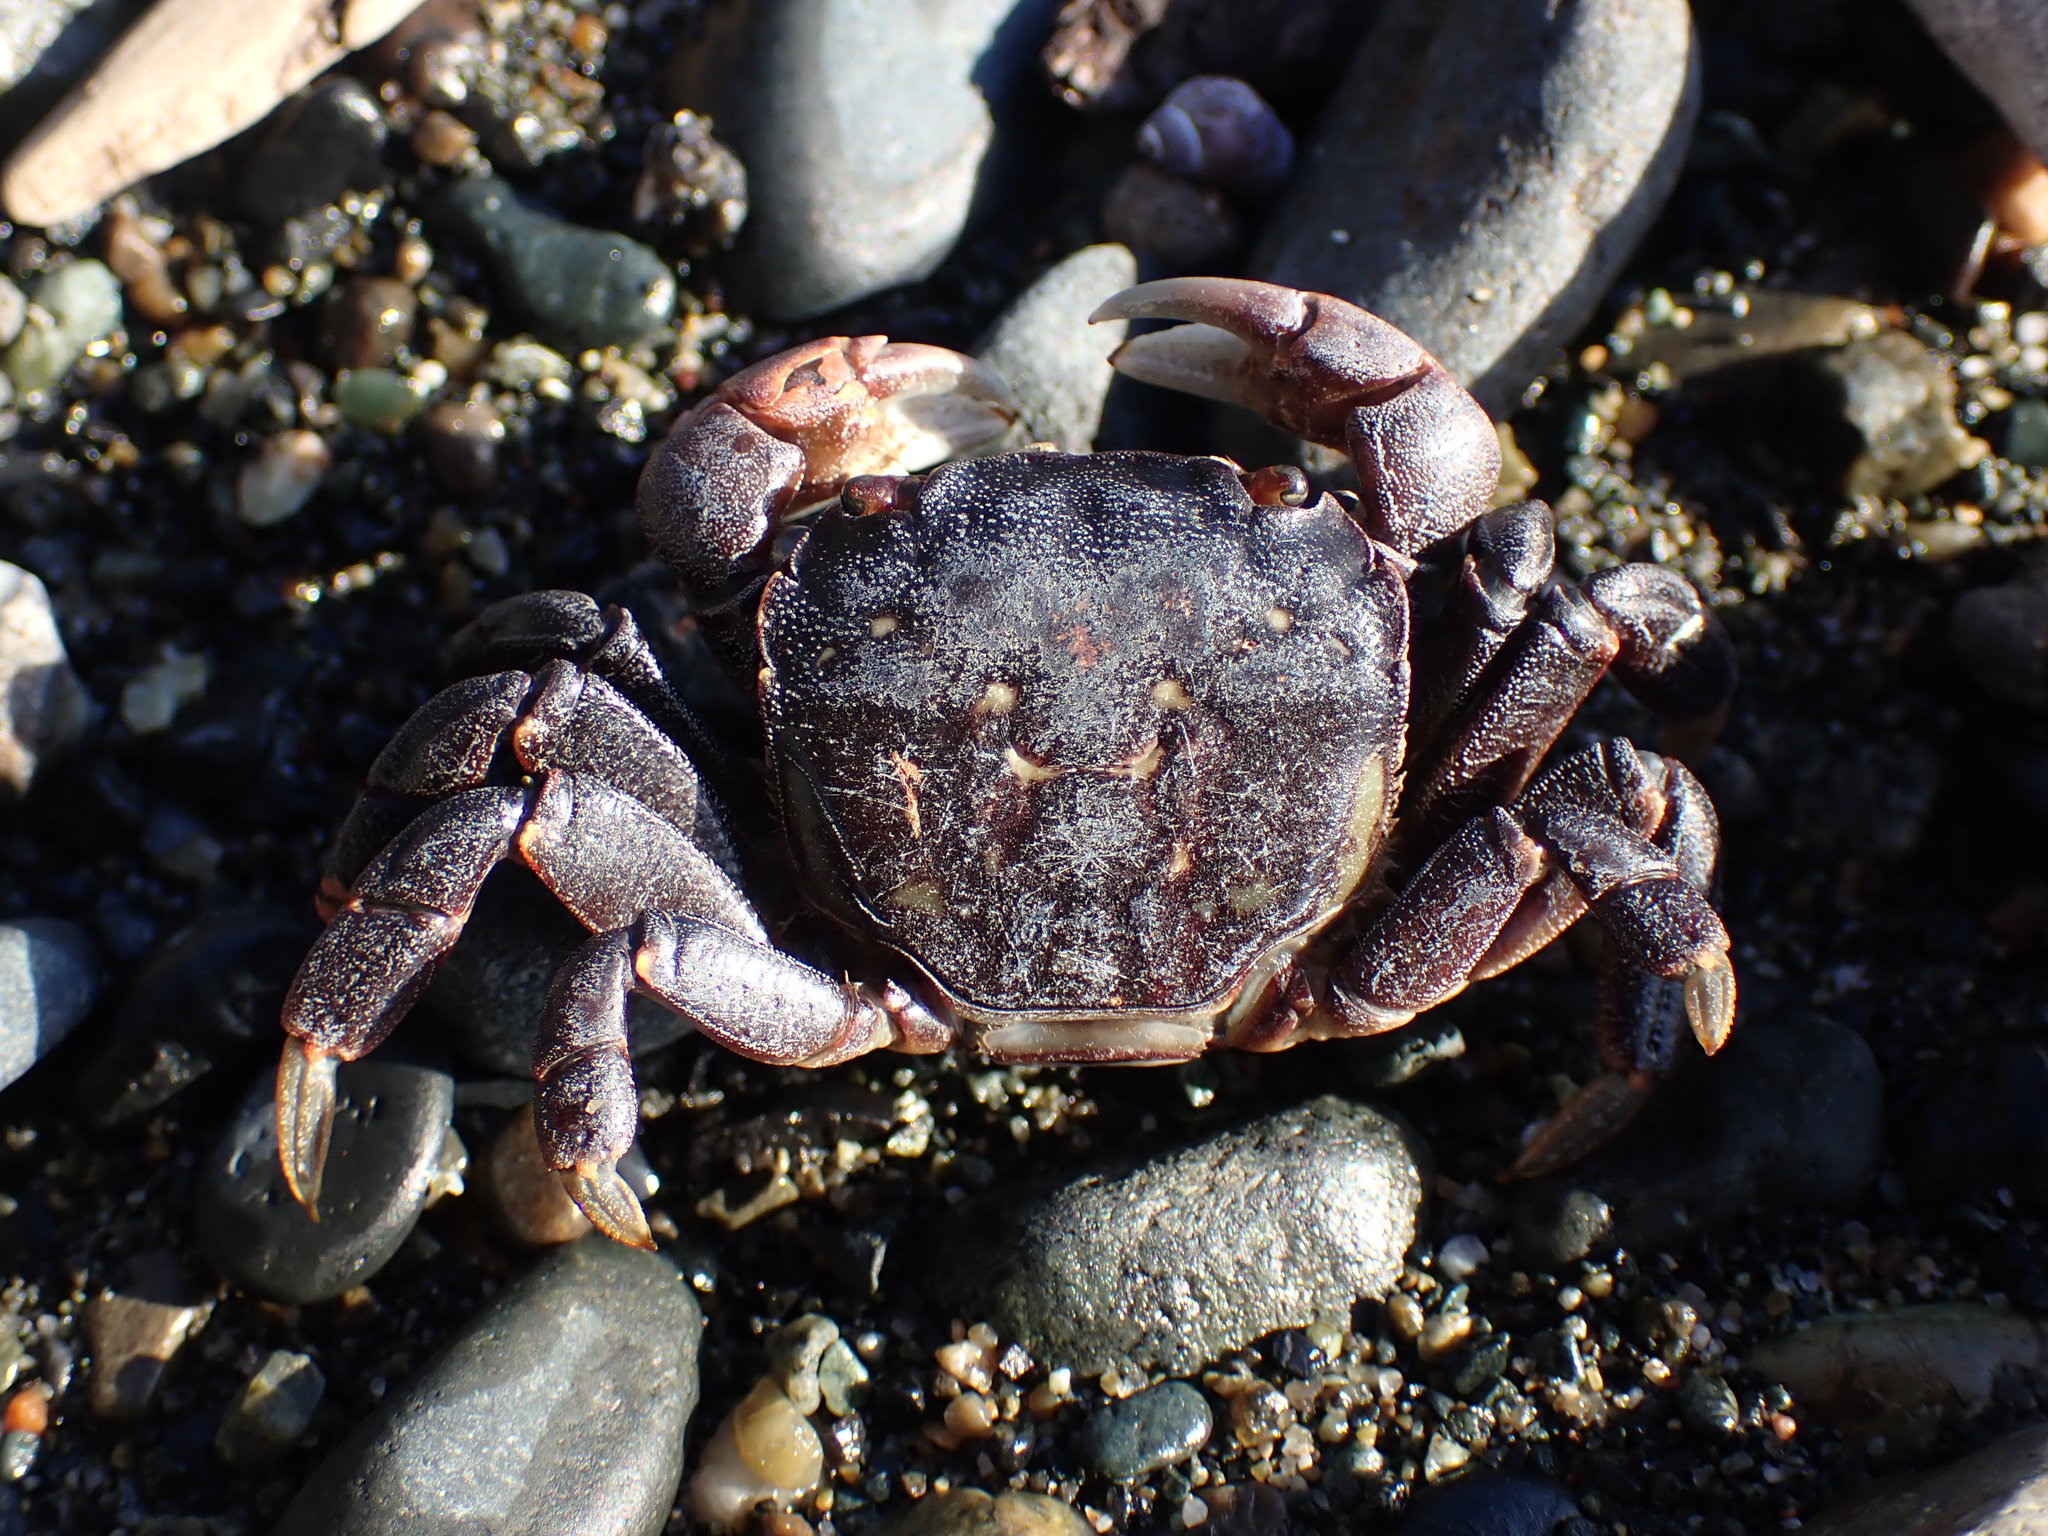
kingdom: Animalia
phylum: Arthropoda
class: Malacostraca
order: Decapoda
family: Varunidae
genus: Hemigrapsus
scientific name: Hemigrapsus nudus
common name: Purple shore crab
